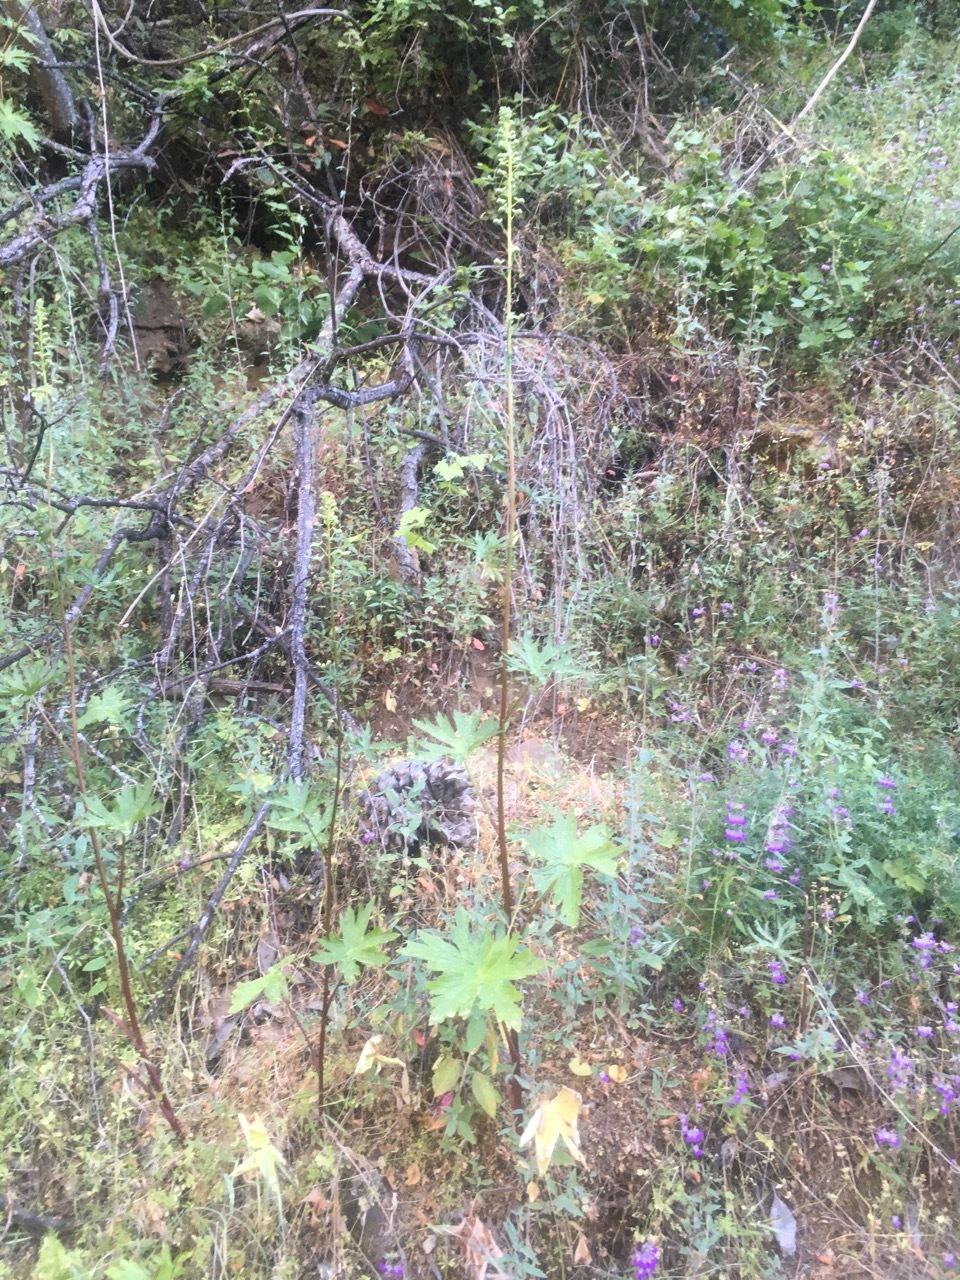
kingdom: Plantae
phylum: Tracheophyta
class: Magnoliopsida
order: Ranunculales
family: Ranunculaceae
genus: Delphinium
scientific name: Delphinium californicum
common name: California larkspur
